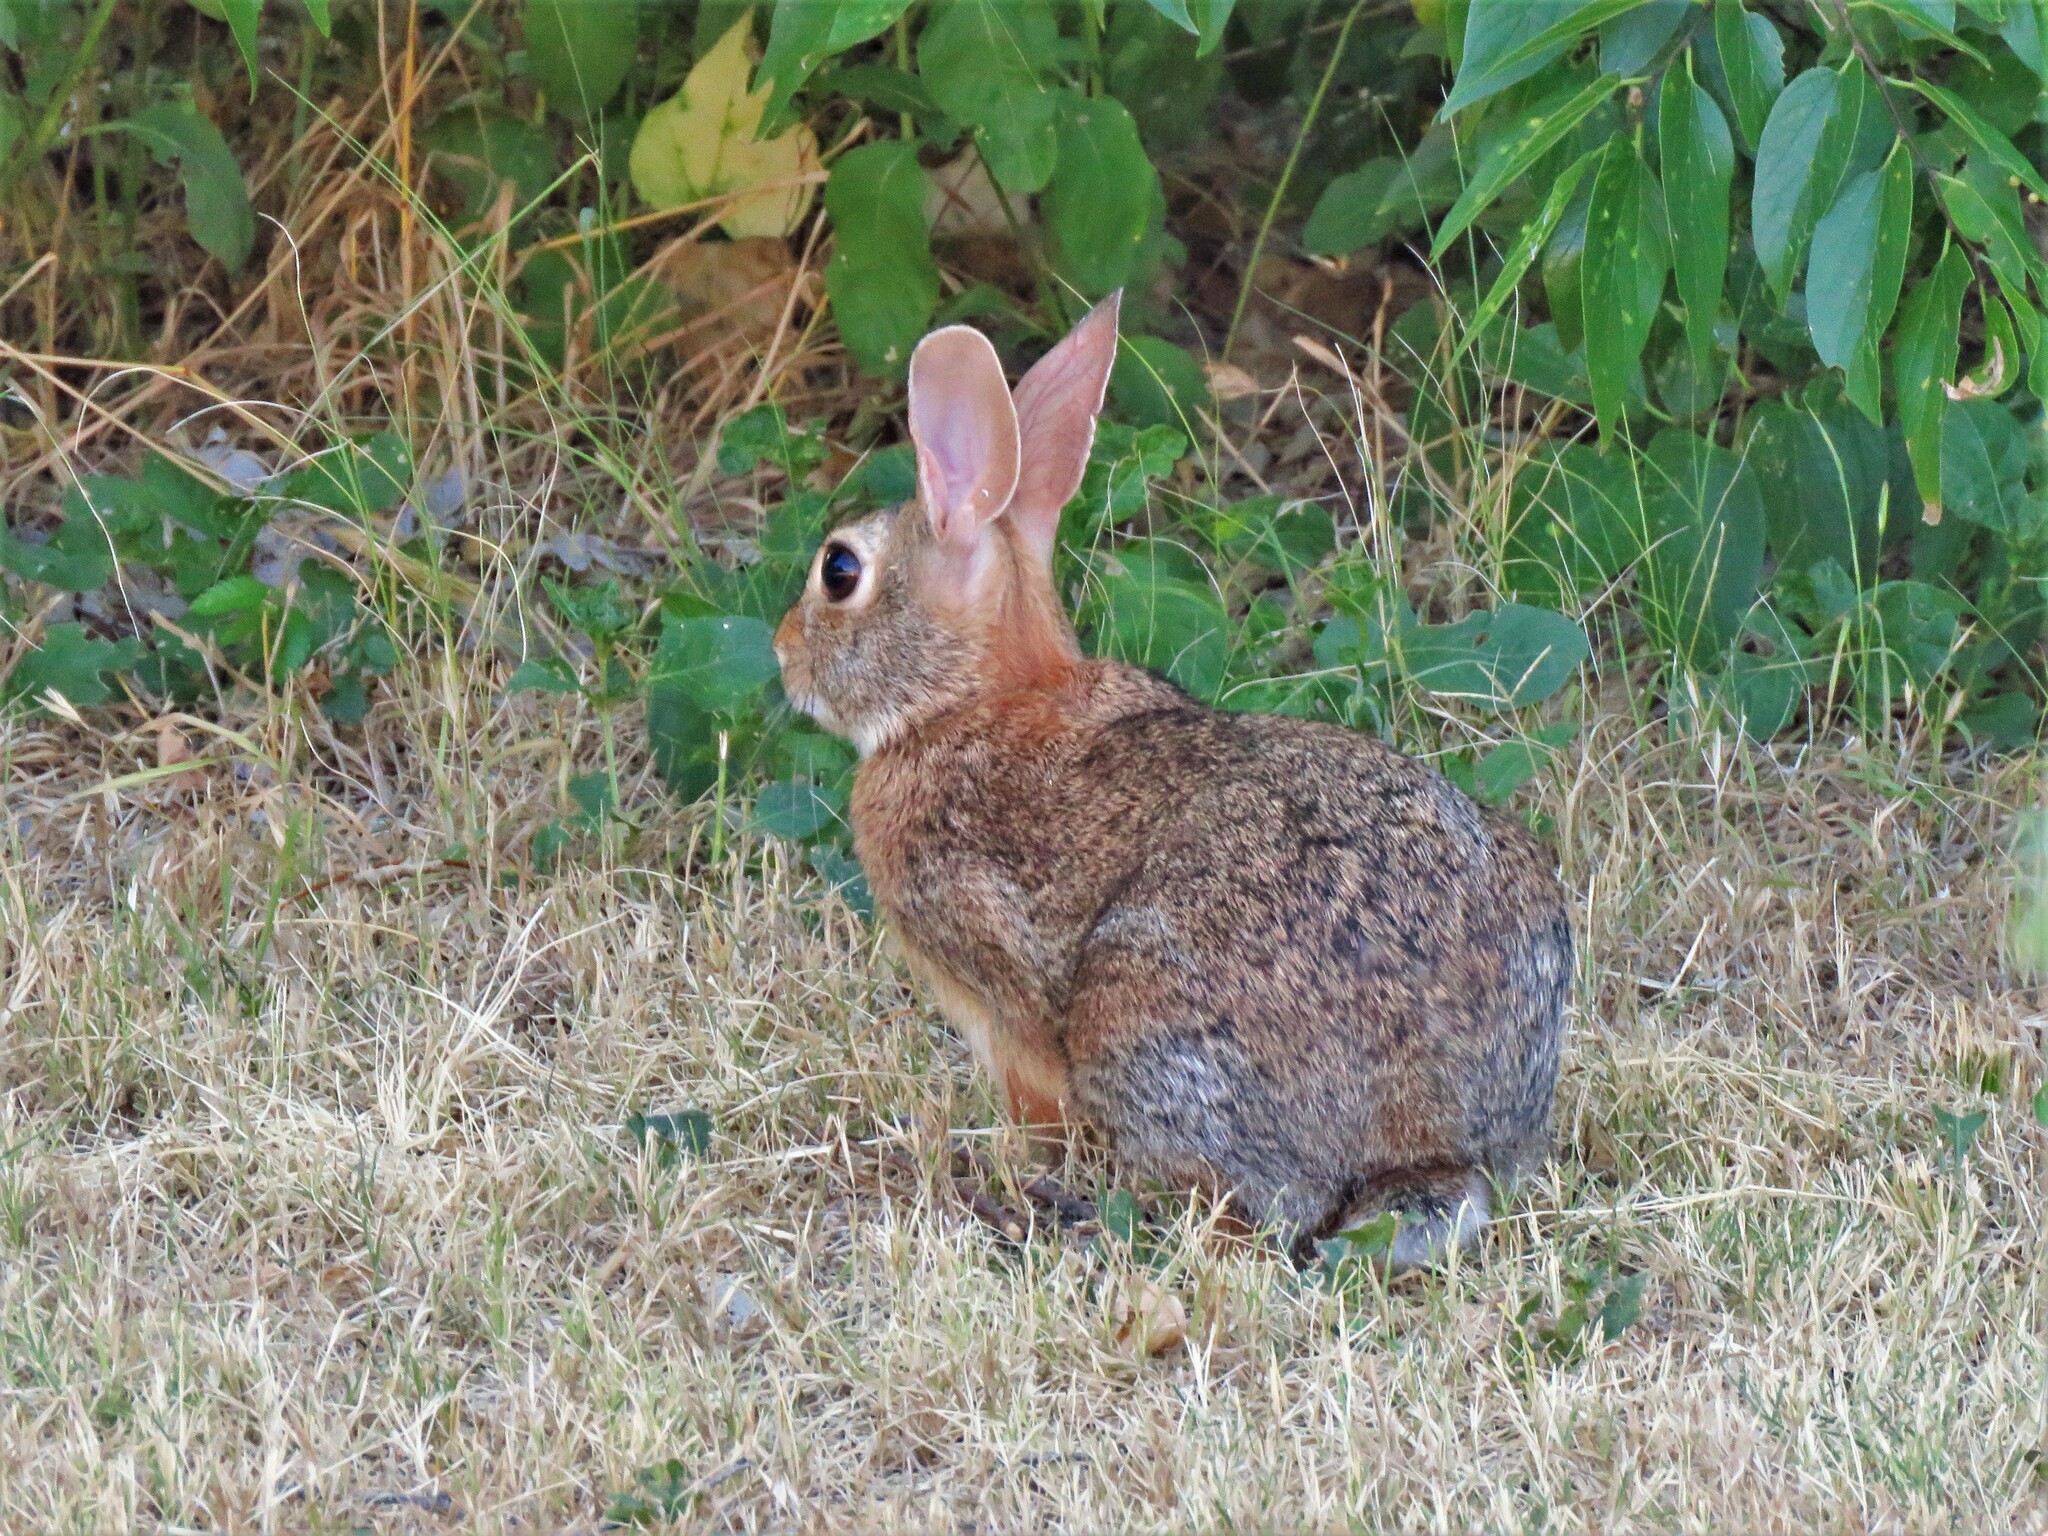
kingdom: Animalia
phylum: Chordata
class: Mammalia
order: Lagomorpha
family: Leporidae
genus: Sylvilagus
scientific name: Sylvilagus floridanus
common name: Eastern cottontail
